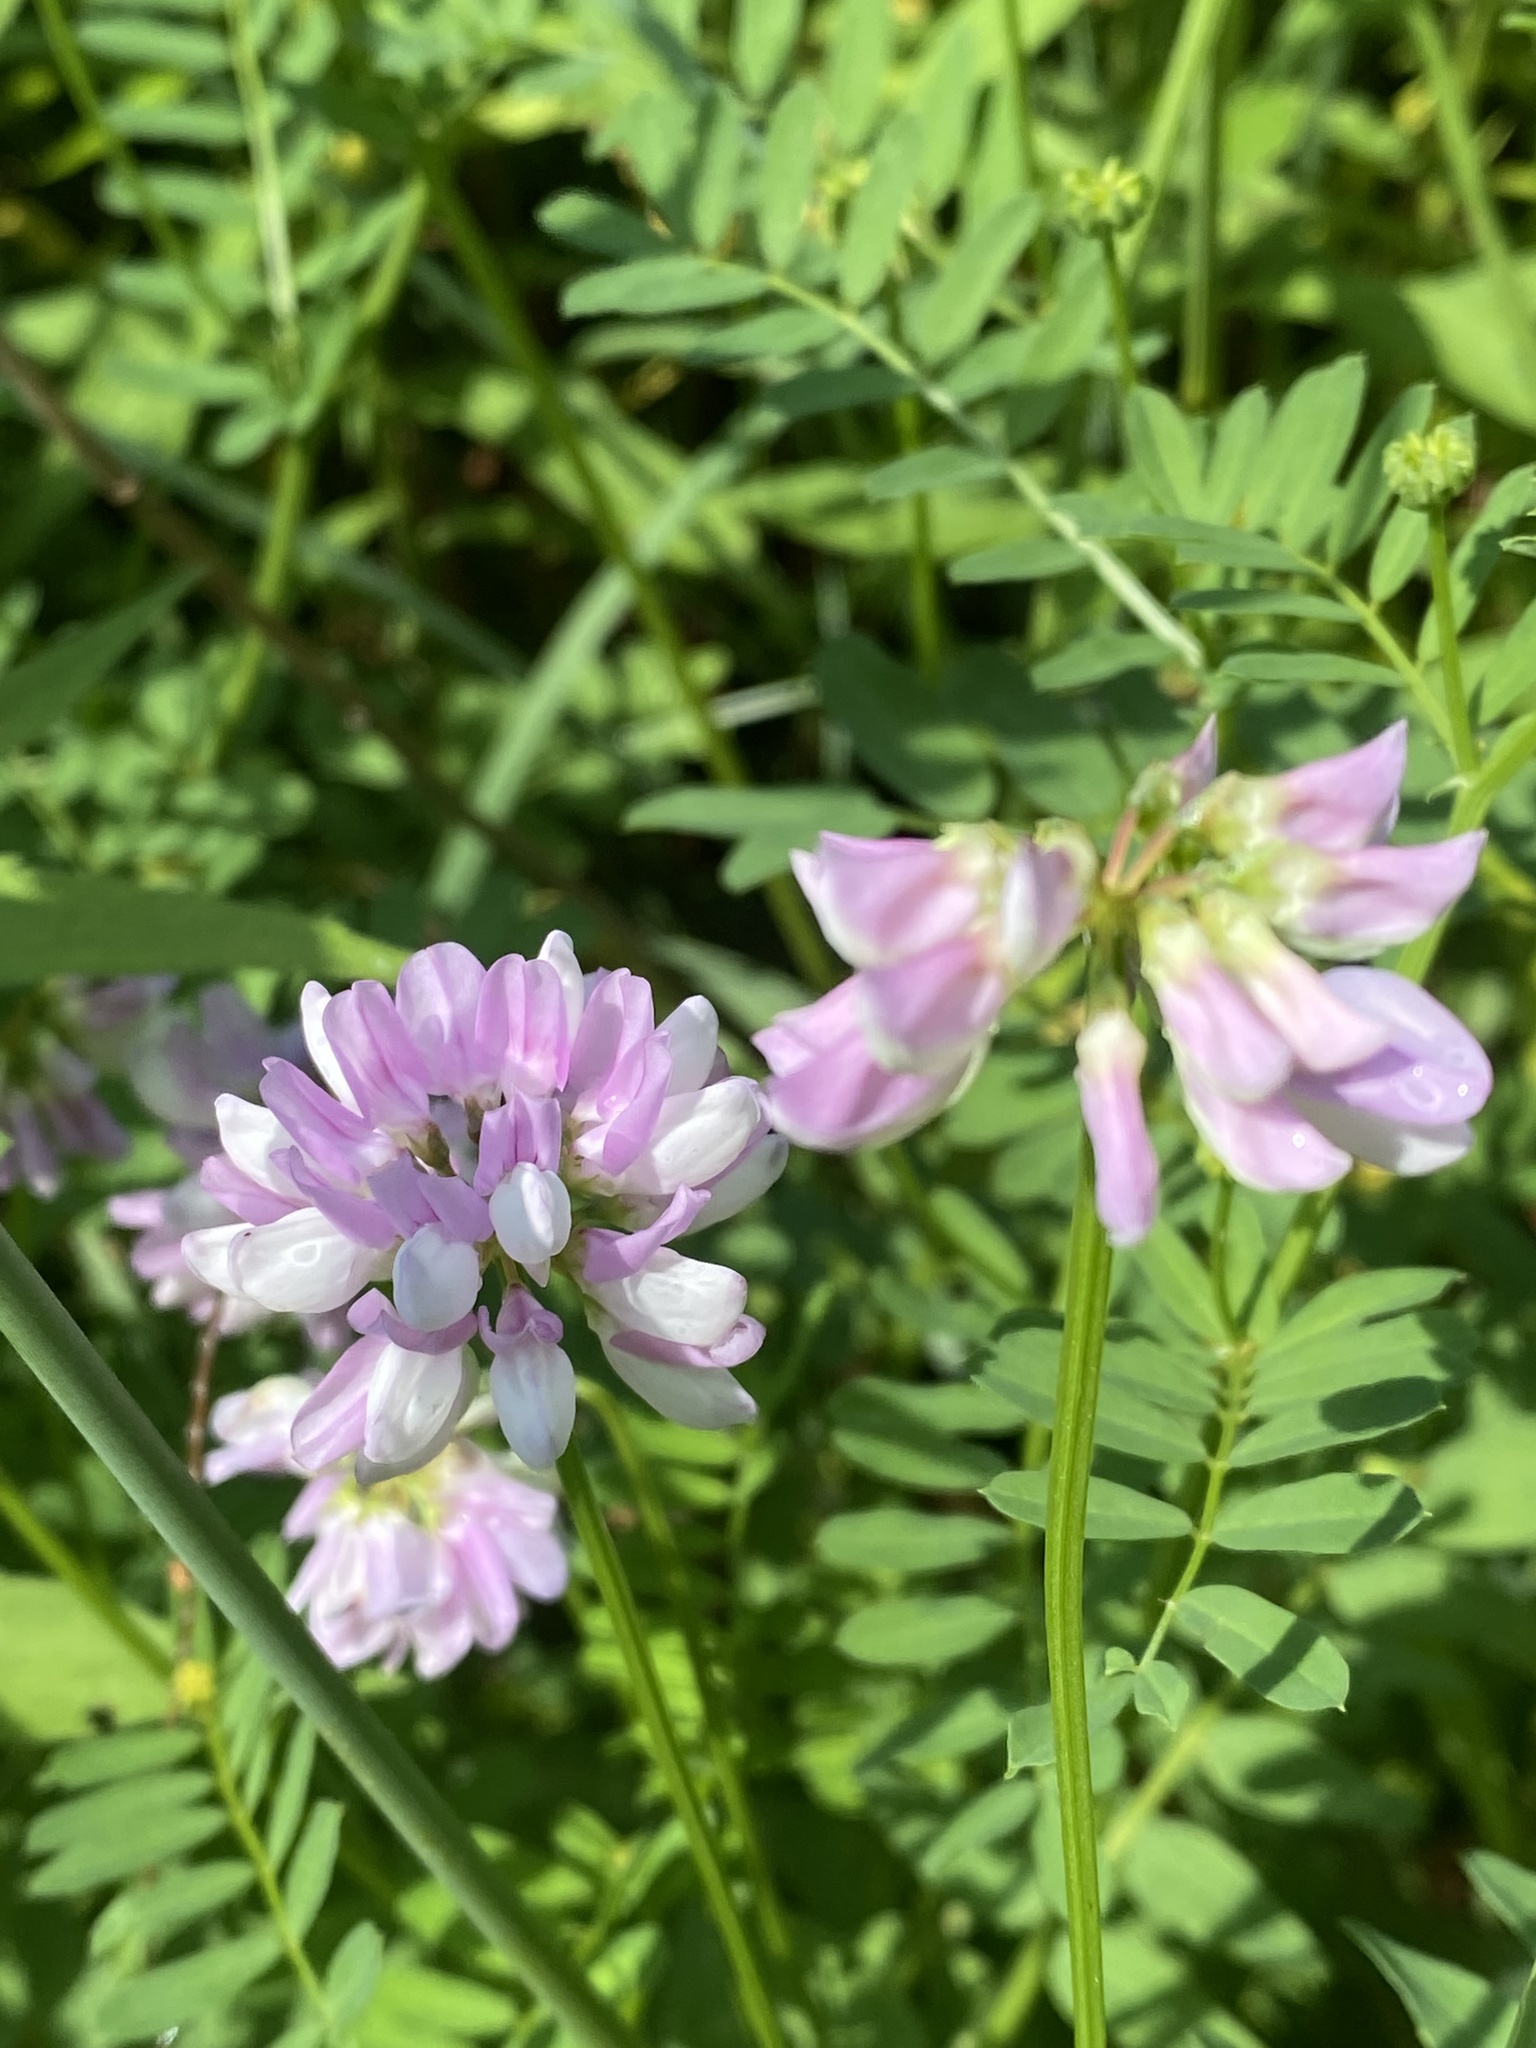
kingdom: Plantae
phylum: Tracheophyta
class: Magnoliopsida
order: Fabales
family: Fabaceae
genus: Coronilla
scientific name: Coronilla varia
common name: Crownvetch
